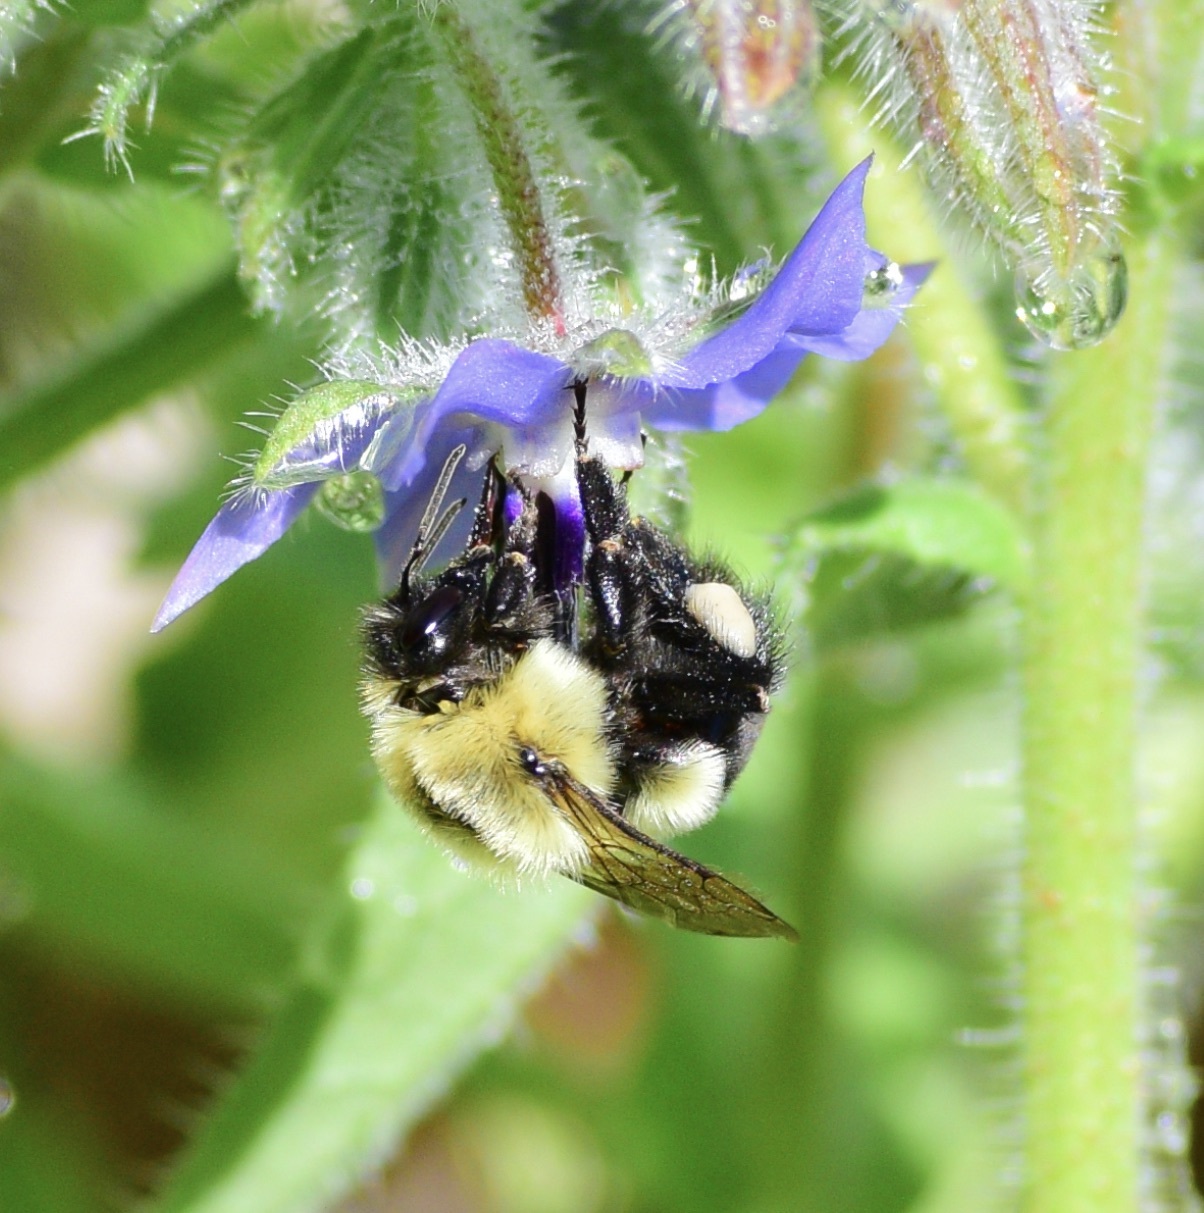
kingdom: Animalia
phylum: Arthropoda
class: Insecta
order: Hymenoptera
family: Apidae
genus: Bombus
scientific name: Bombus impatiens
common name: Common eastern bumble bee
